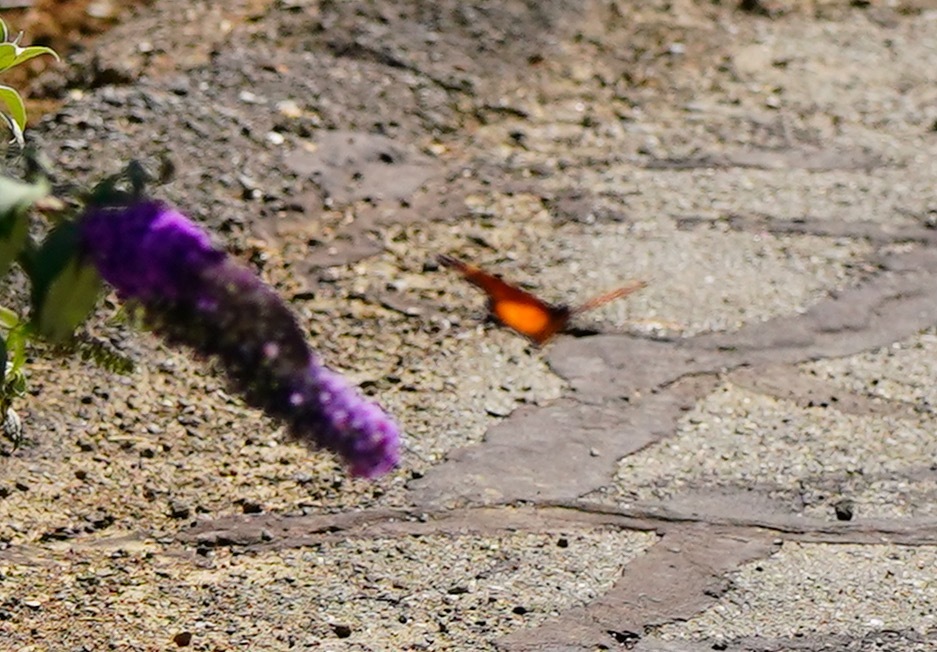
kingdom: Animalia
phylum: Arthropoda
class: Insecta
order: Lepidoptera
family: Nymphalidae
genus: Danaus
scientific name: Danaus plexippus
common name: Monarch
